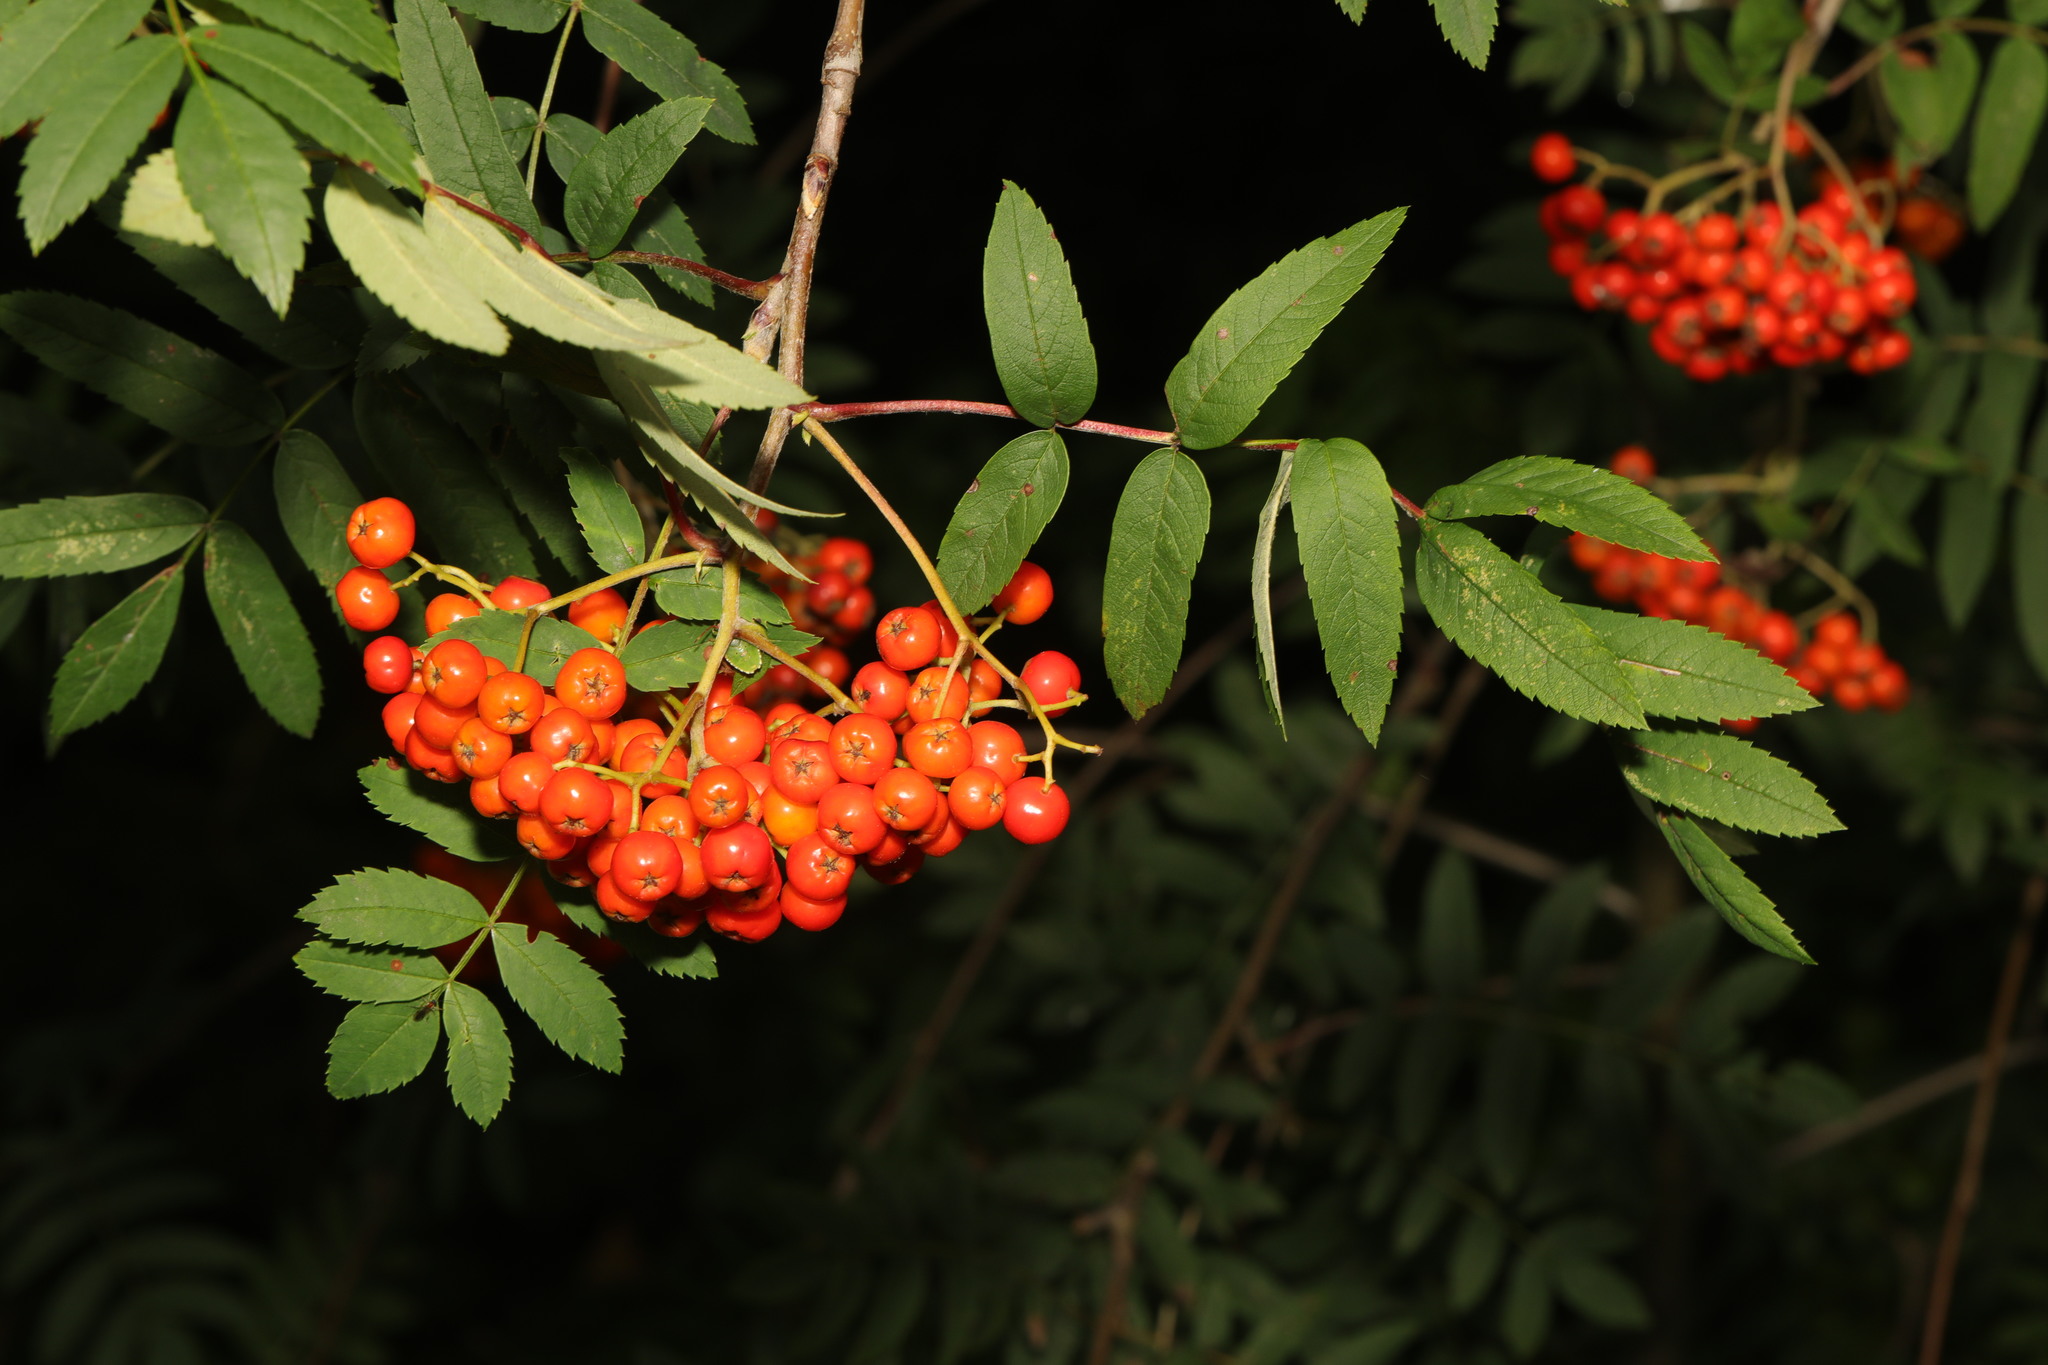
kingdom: Plantae
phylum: Tracheophyta
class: Magnoliopsida
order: Rosales
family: Rosaceae
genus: Sorbus
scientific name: Sorbus aucuparia
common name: Rowan
